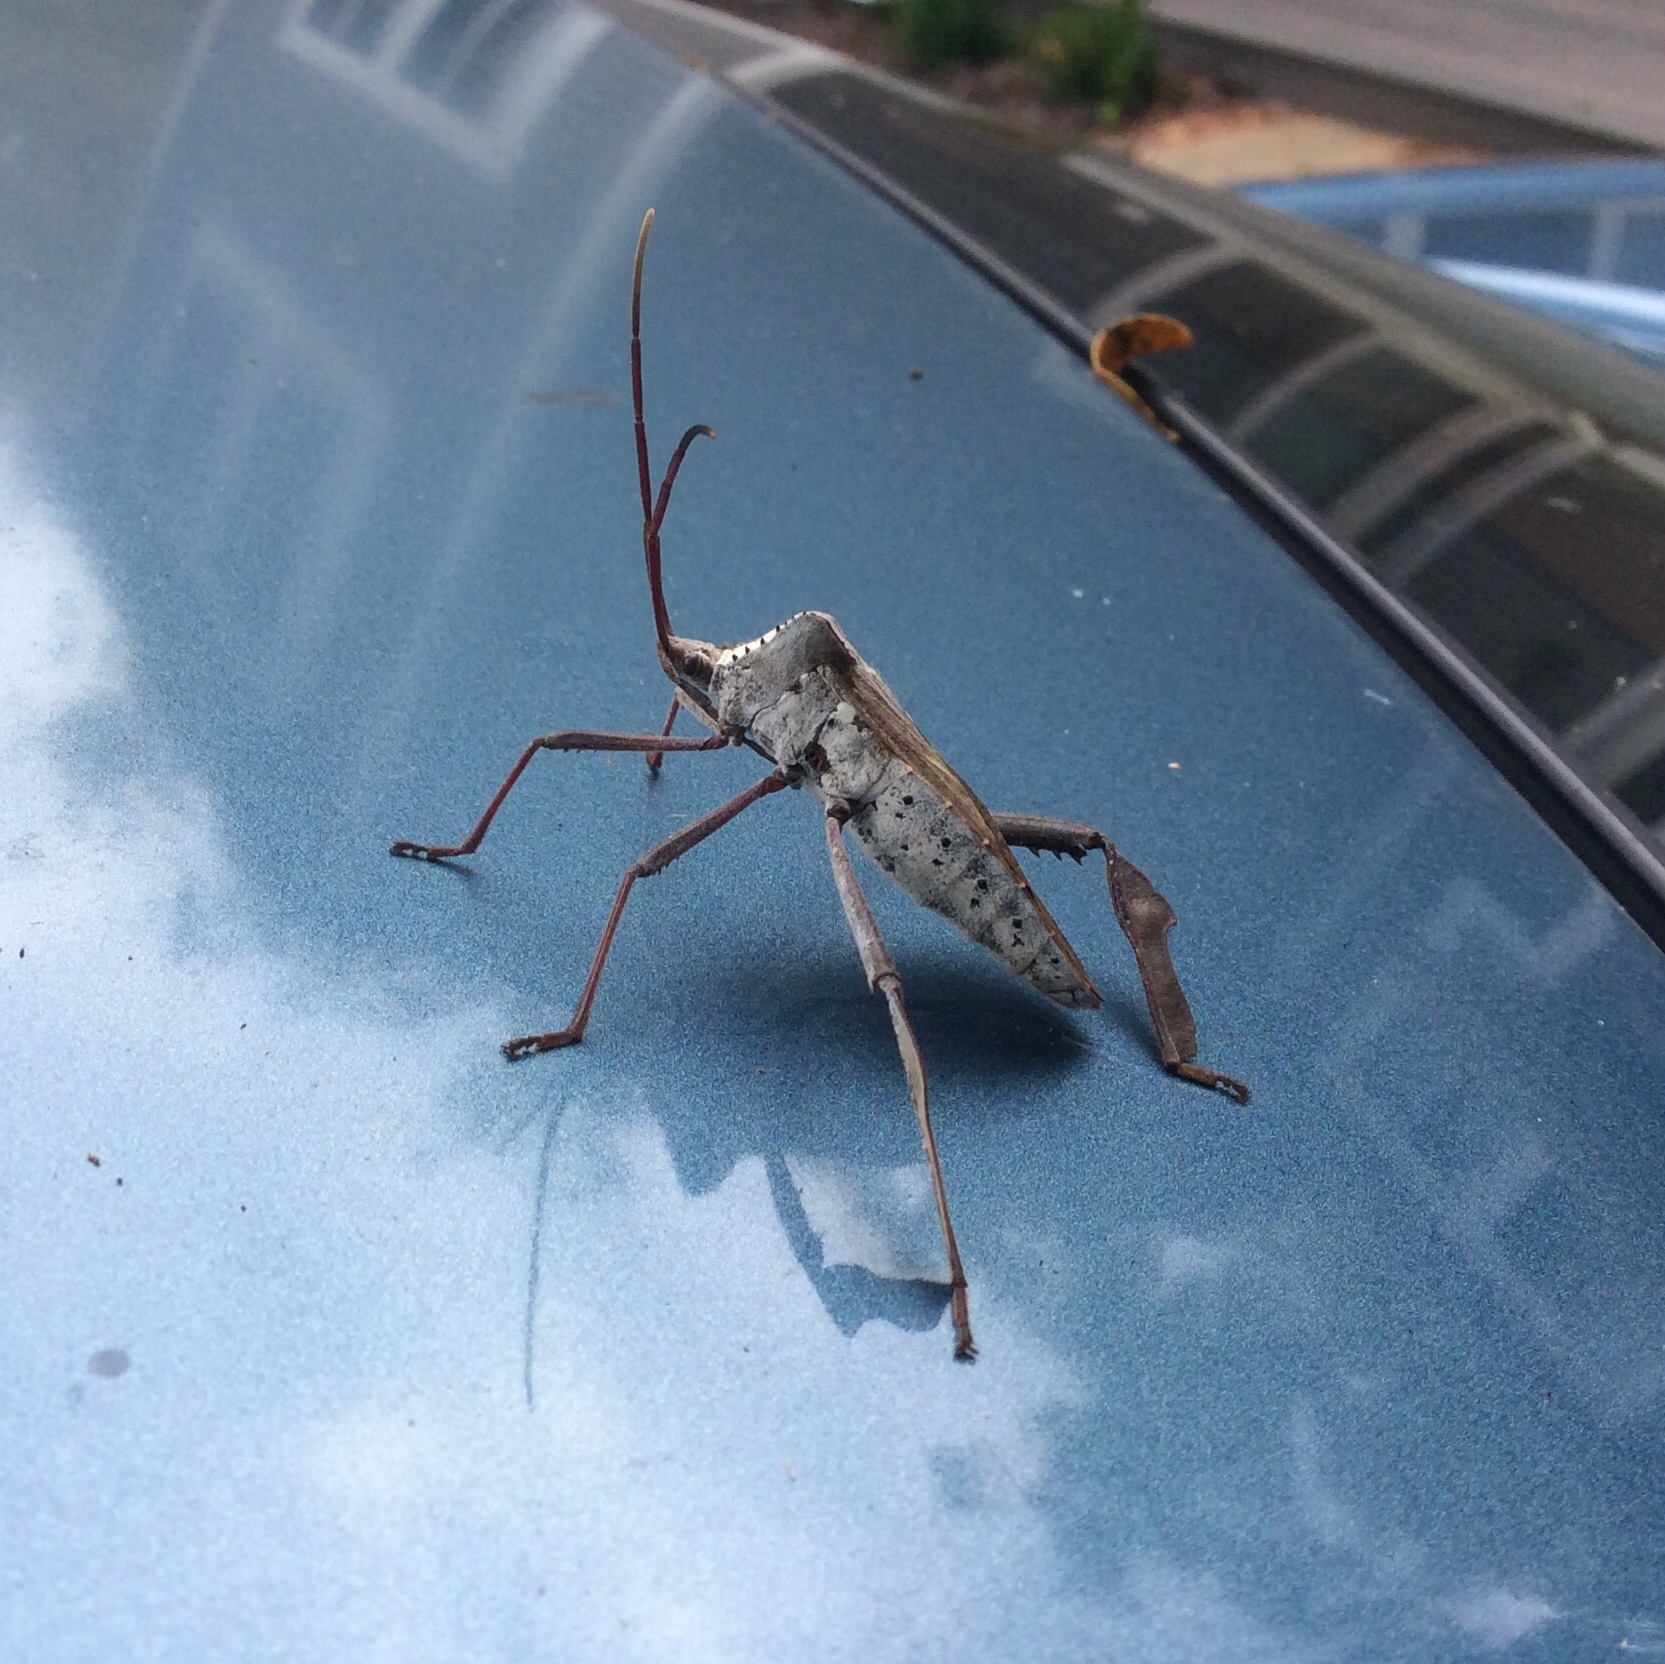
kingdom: Animalia
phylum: Arthropoda
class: Insecta
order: Hemiptera
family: Coreidae
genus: Acanthocephala
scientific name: Acanthocephala declivis
